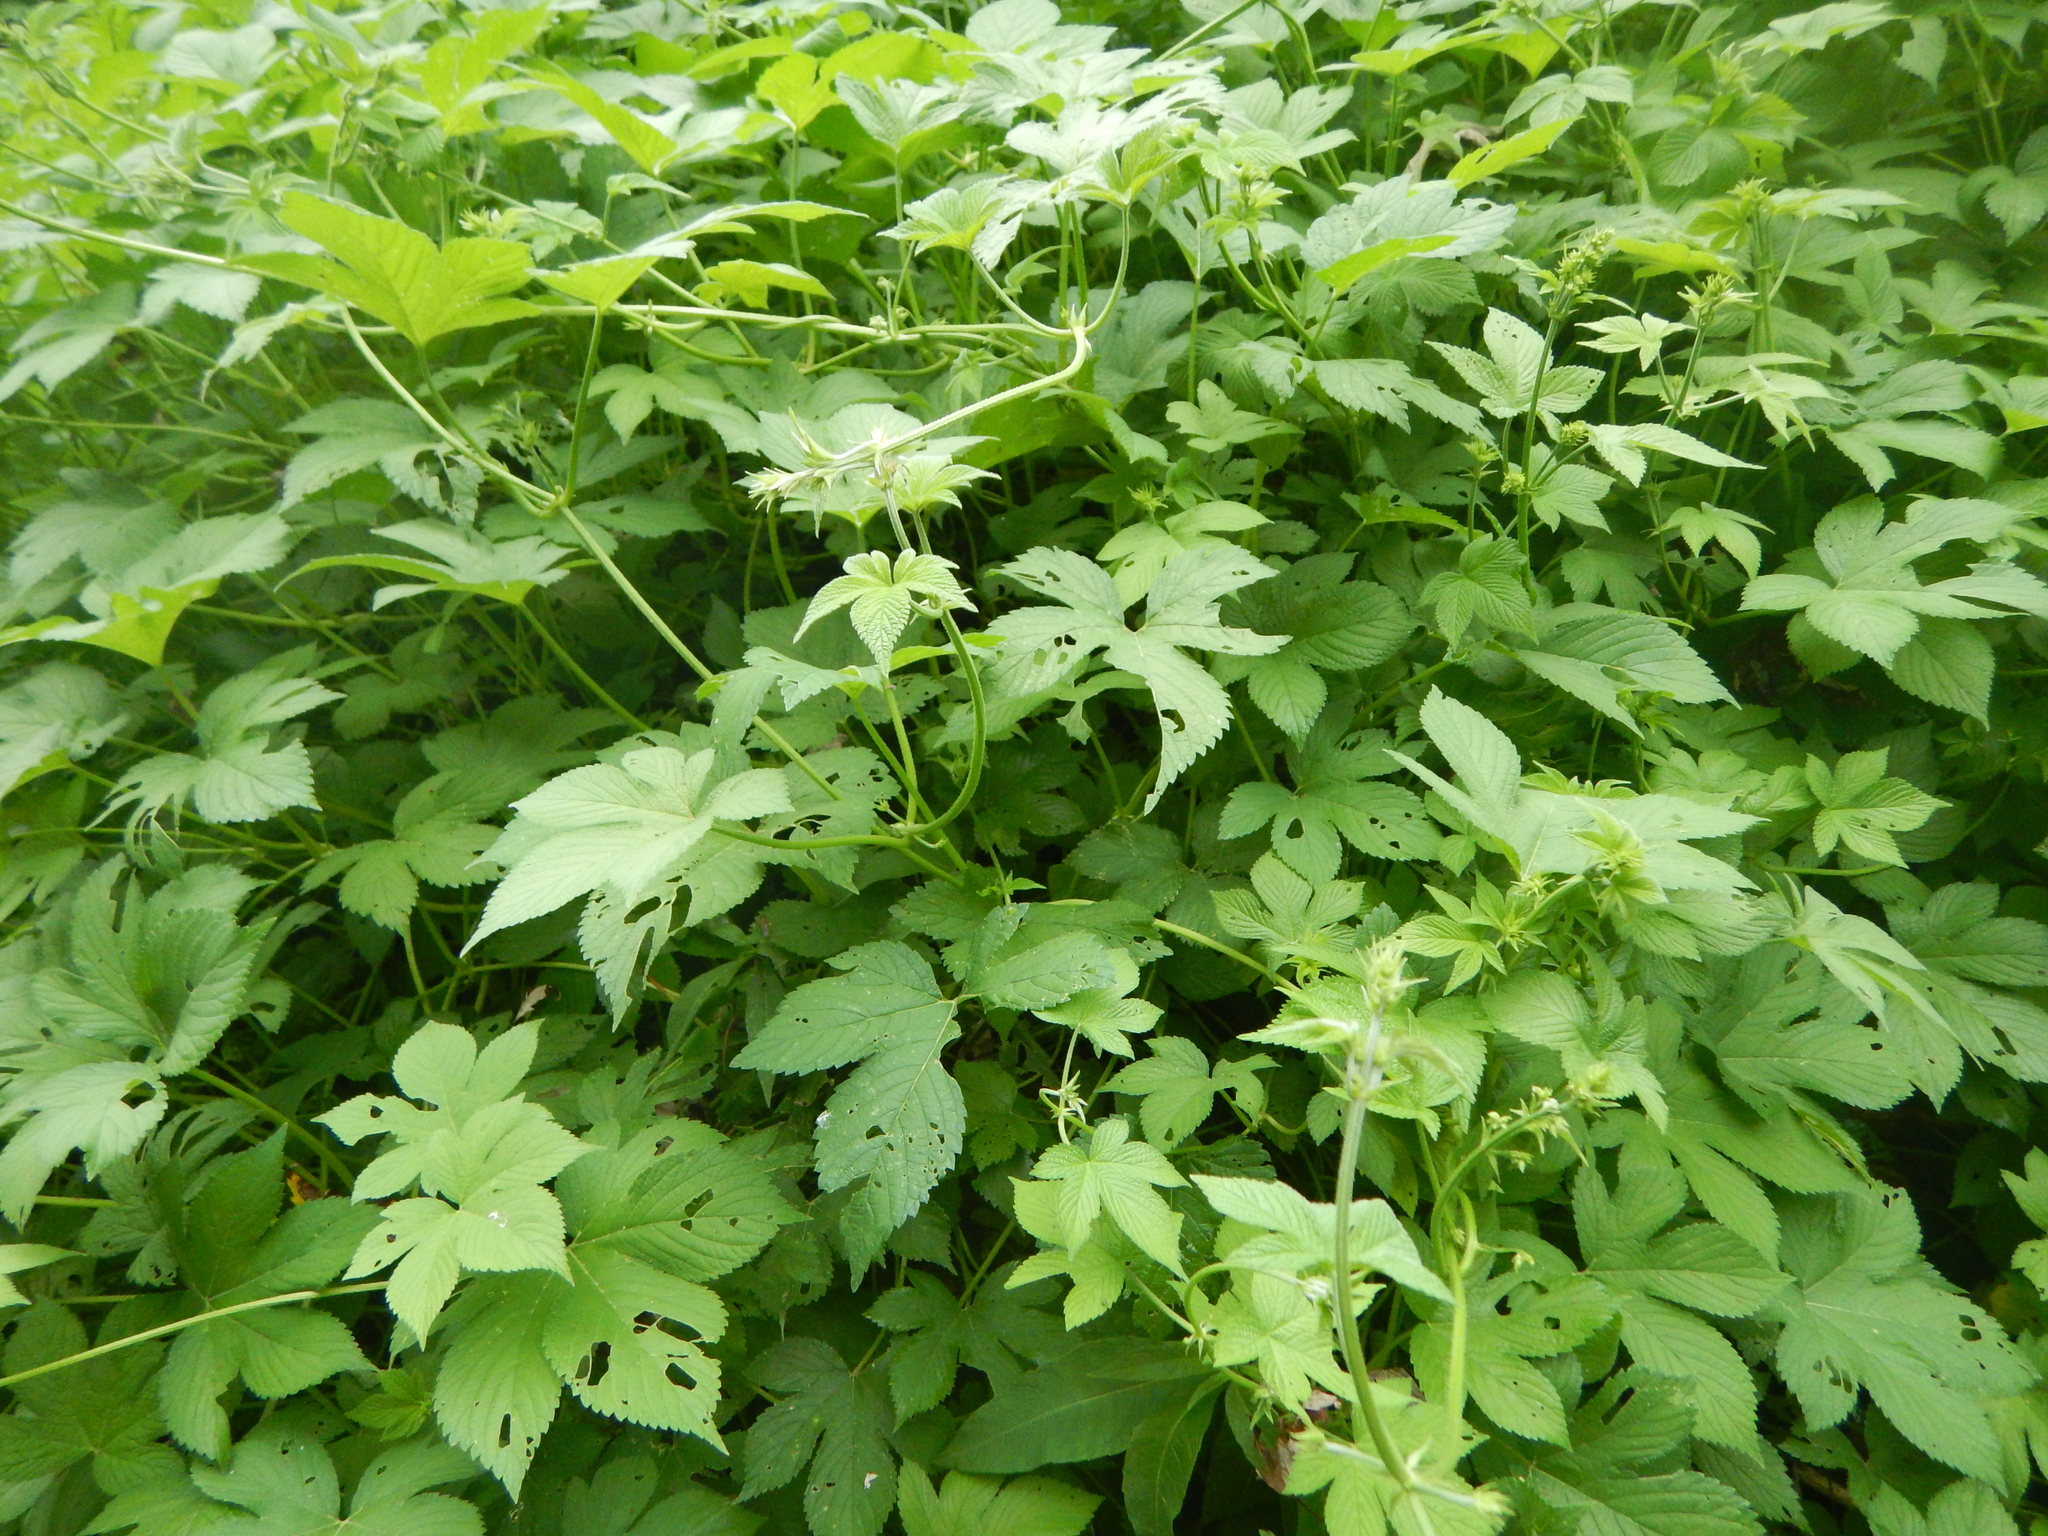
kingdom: Plantae
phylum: Tracheophyta
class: Magnoliopsida
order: Rosales
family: Cannabaceae
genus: Humulus
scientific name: Humulus scandens
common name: Japanese hop
